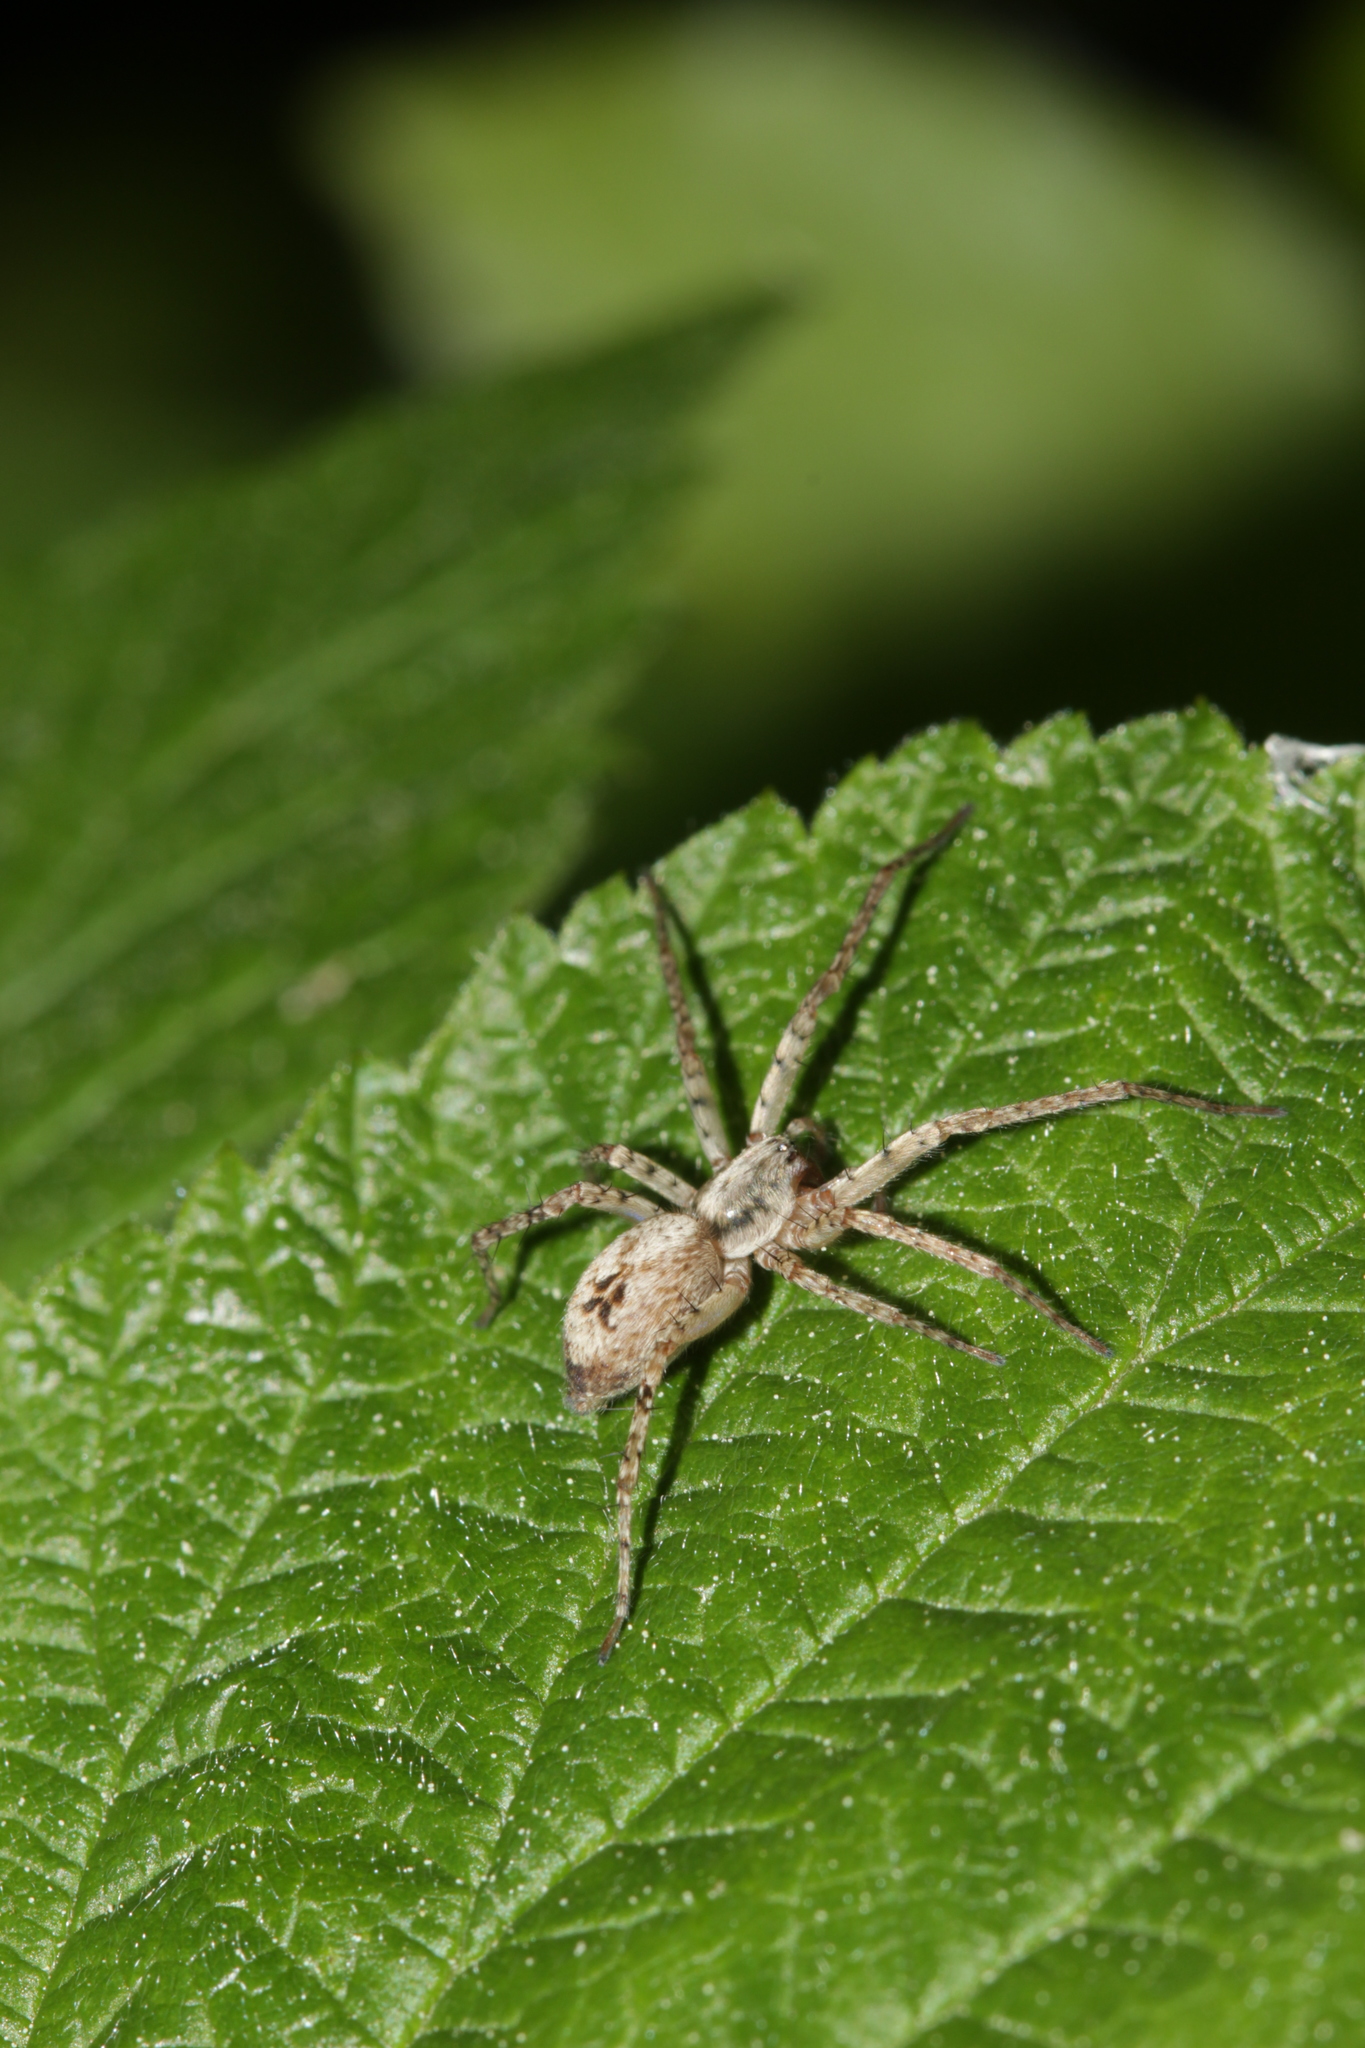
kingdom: Animalia
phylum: Arthropoda
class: Arachnida
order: Araneae
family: Anyphaenidae
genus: Anyphaena
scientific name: Anyphaena accentuata
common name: Buzzing spider
